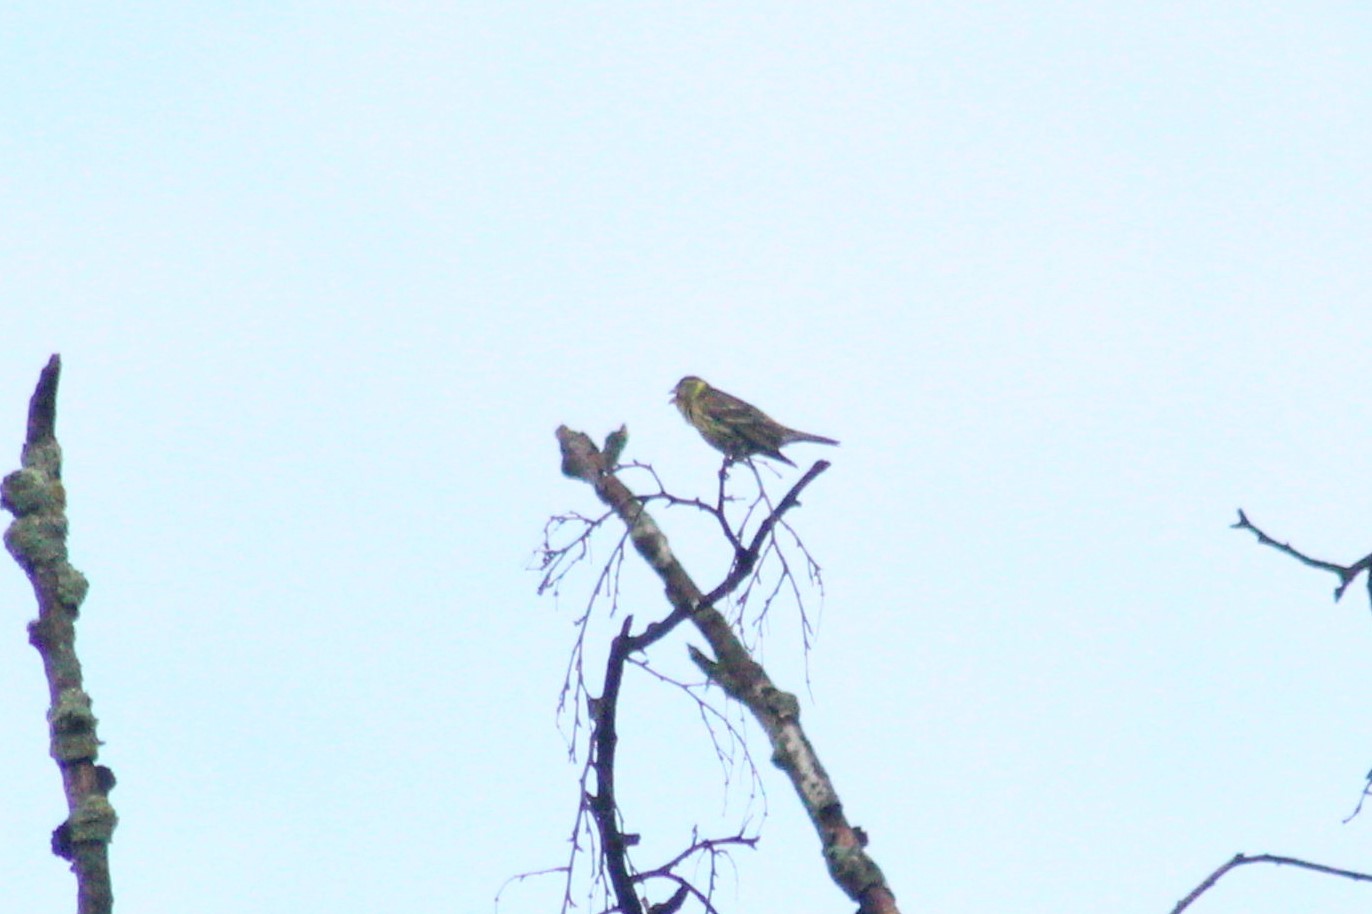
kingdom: Animalia
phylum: Chordata
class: Aves
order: Passeriformes
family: Emberizidae
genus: Emberiza
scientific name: Emberiza citrinella
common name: Yellowhammer
